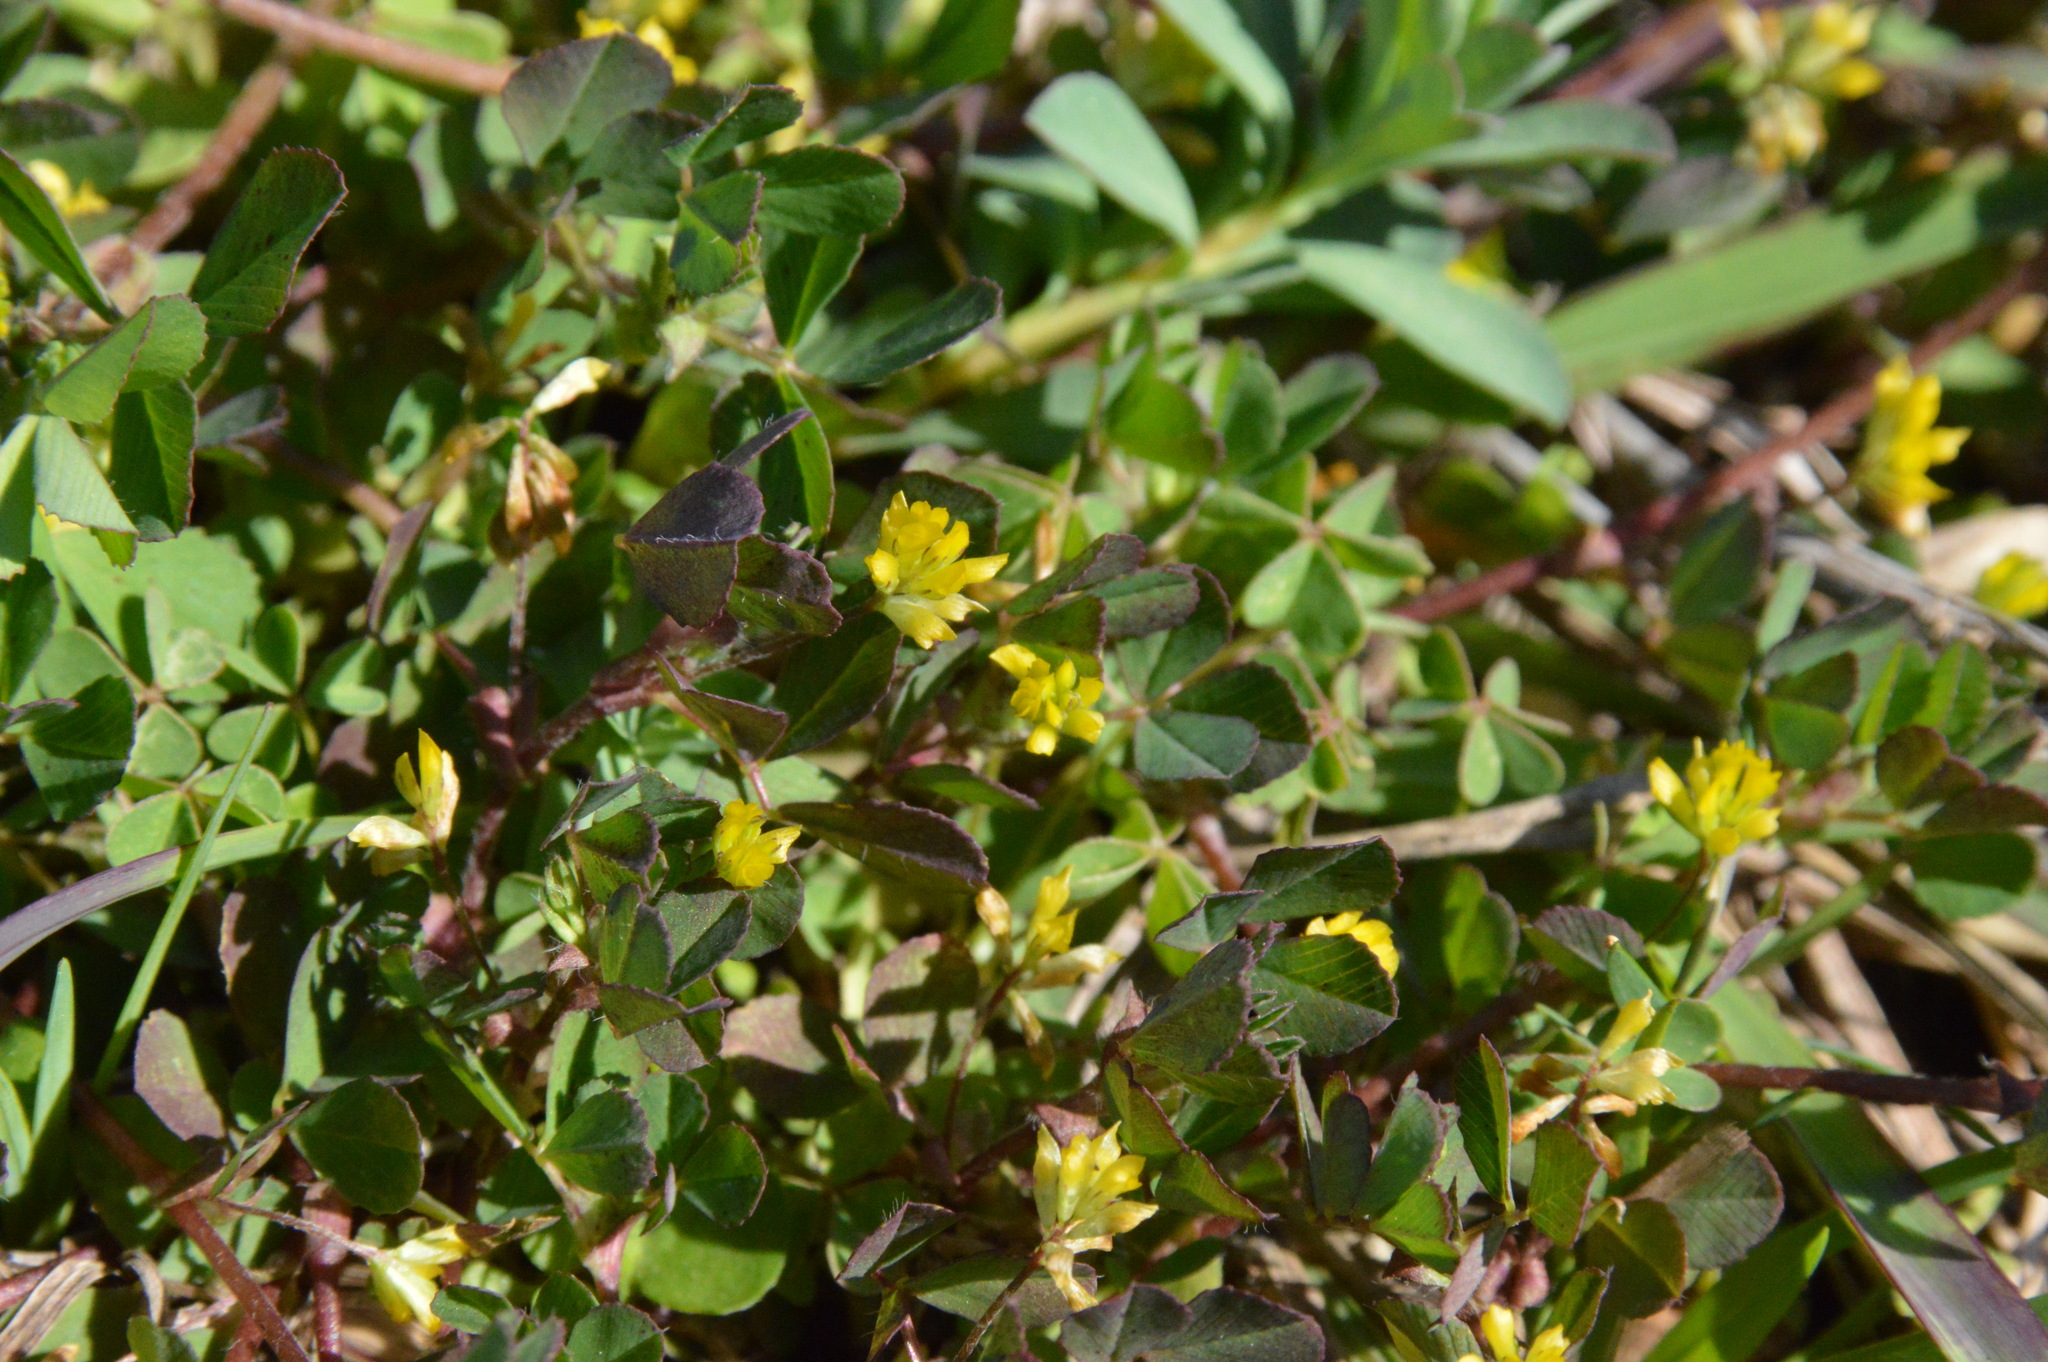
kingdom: Plantae
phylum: Tracheophyta
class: Magnoliopsida
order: Fabales
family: Fabaceae
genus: Trifolium
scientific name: Trifolium dubium
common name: Suckling clover
